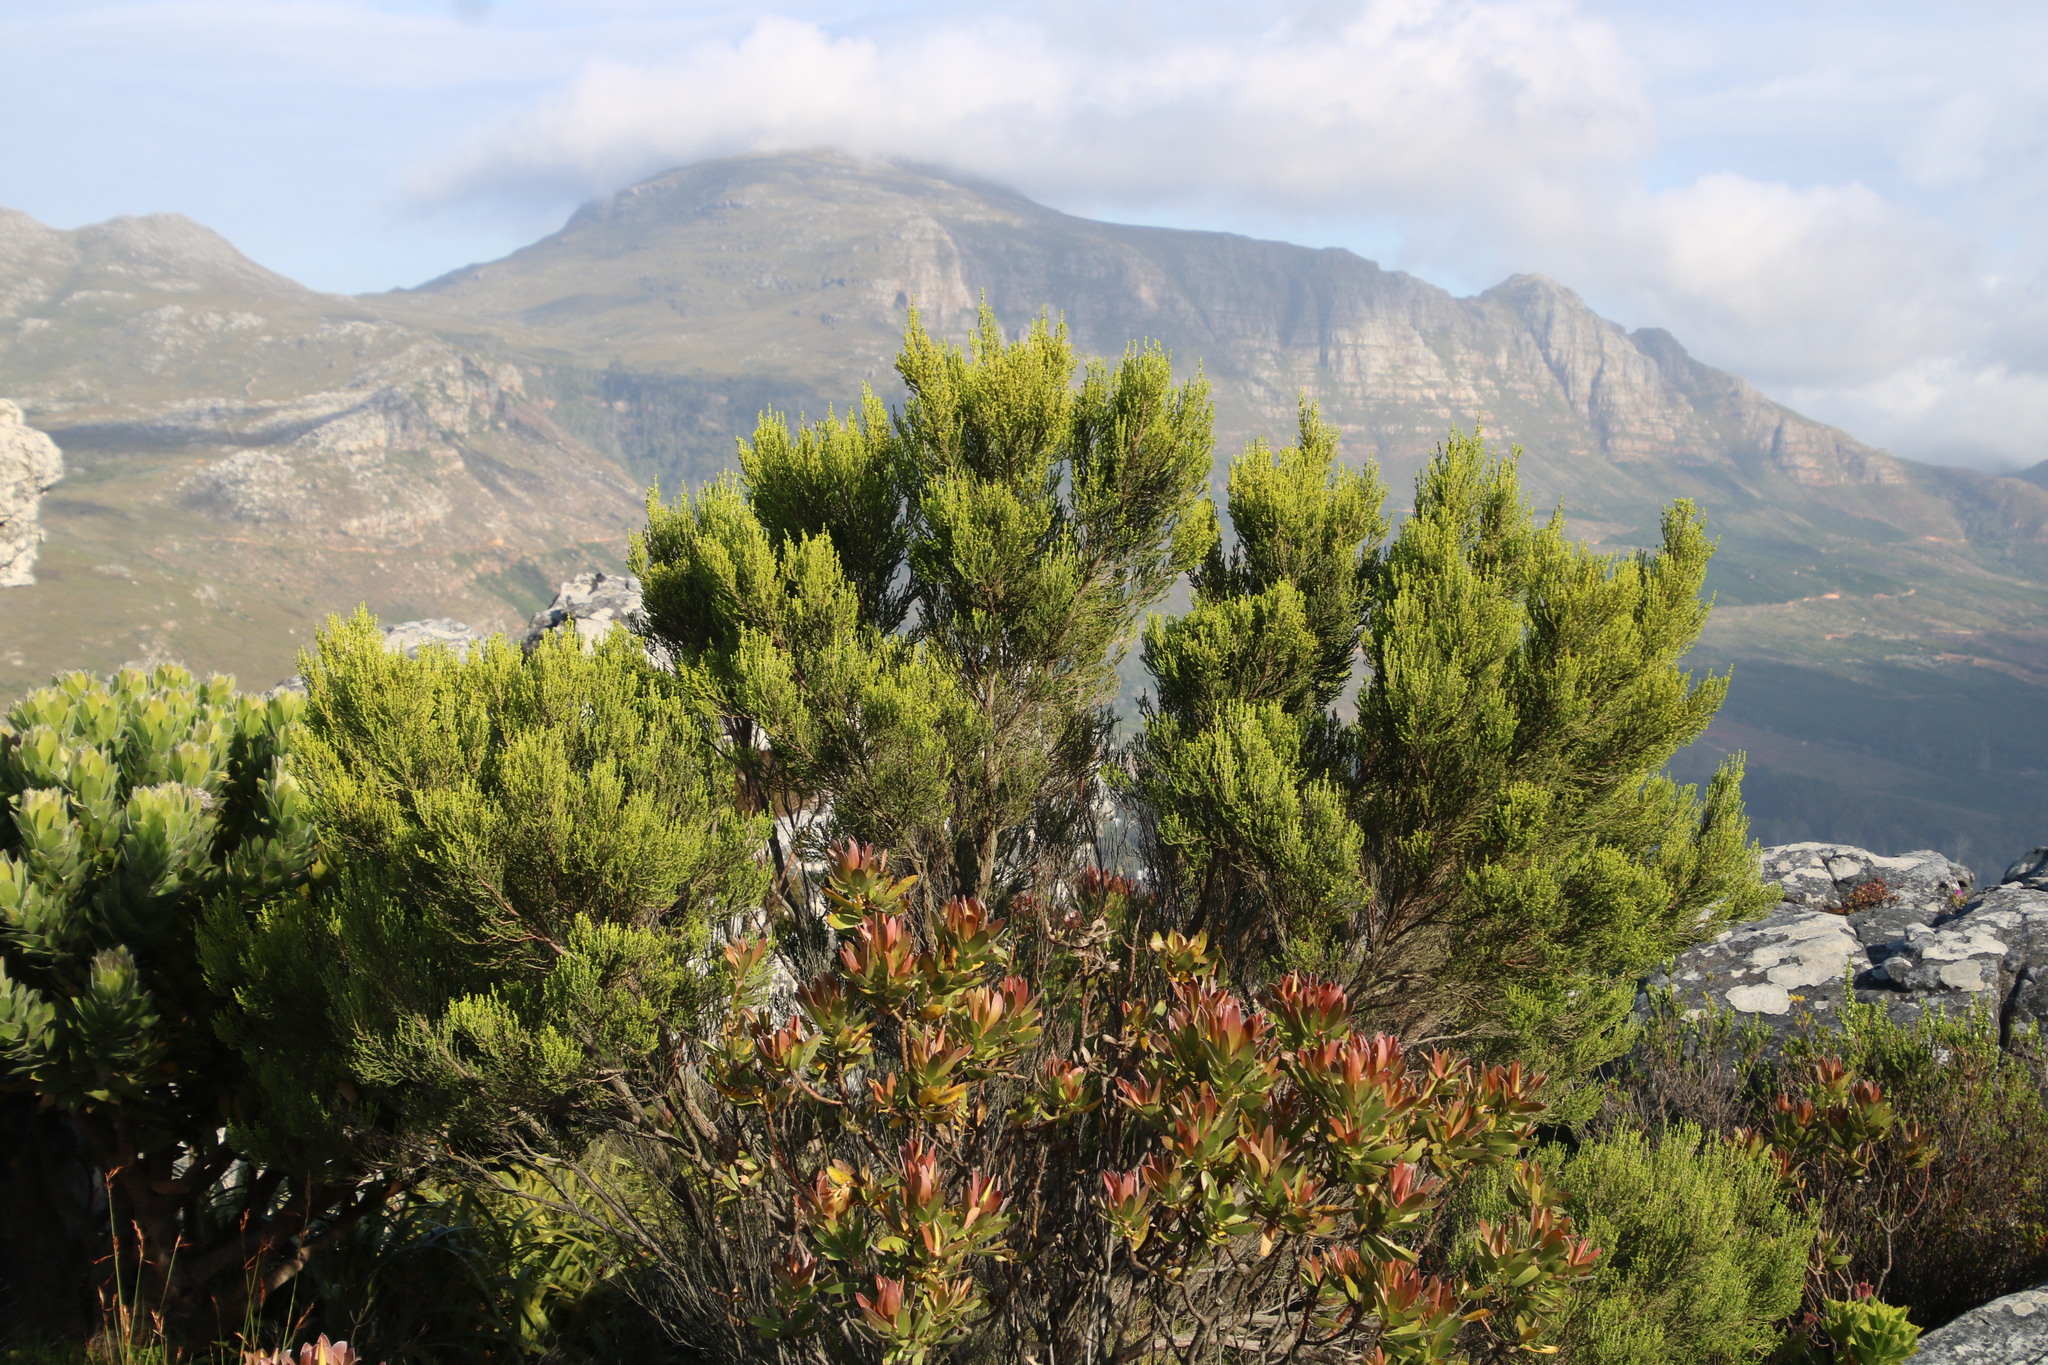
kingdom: Plantae
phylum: Tracheophyta
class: Magnoliopsida
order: Ericales
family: Ericaceae
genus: Erica
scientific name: Erica tristis
